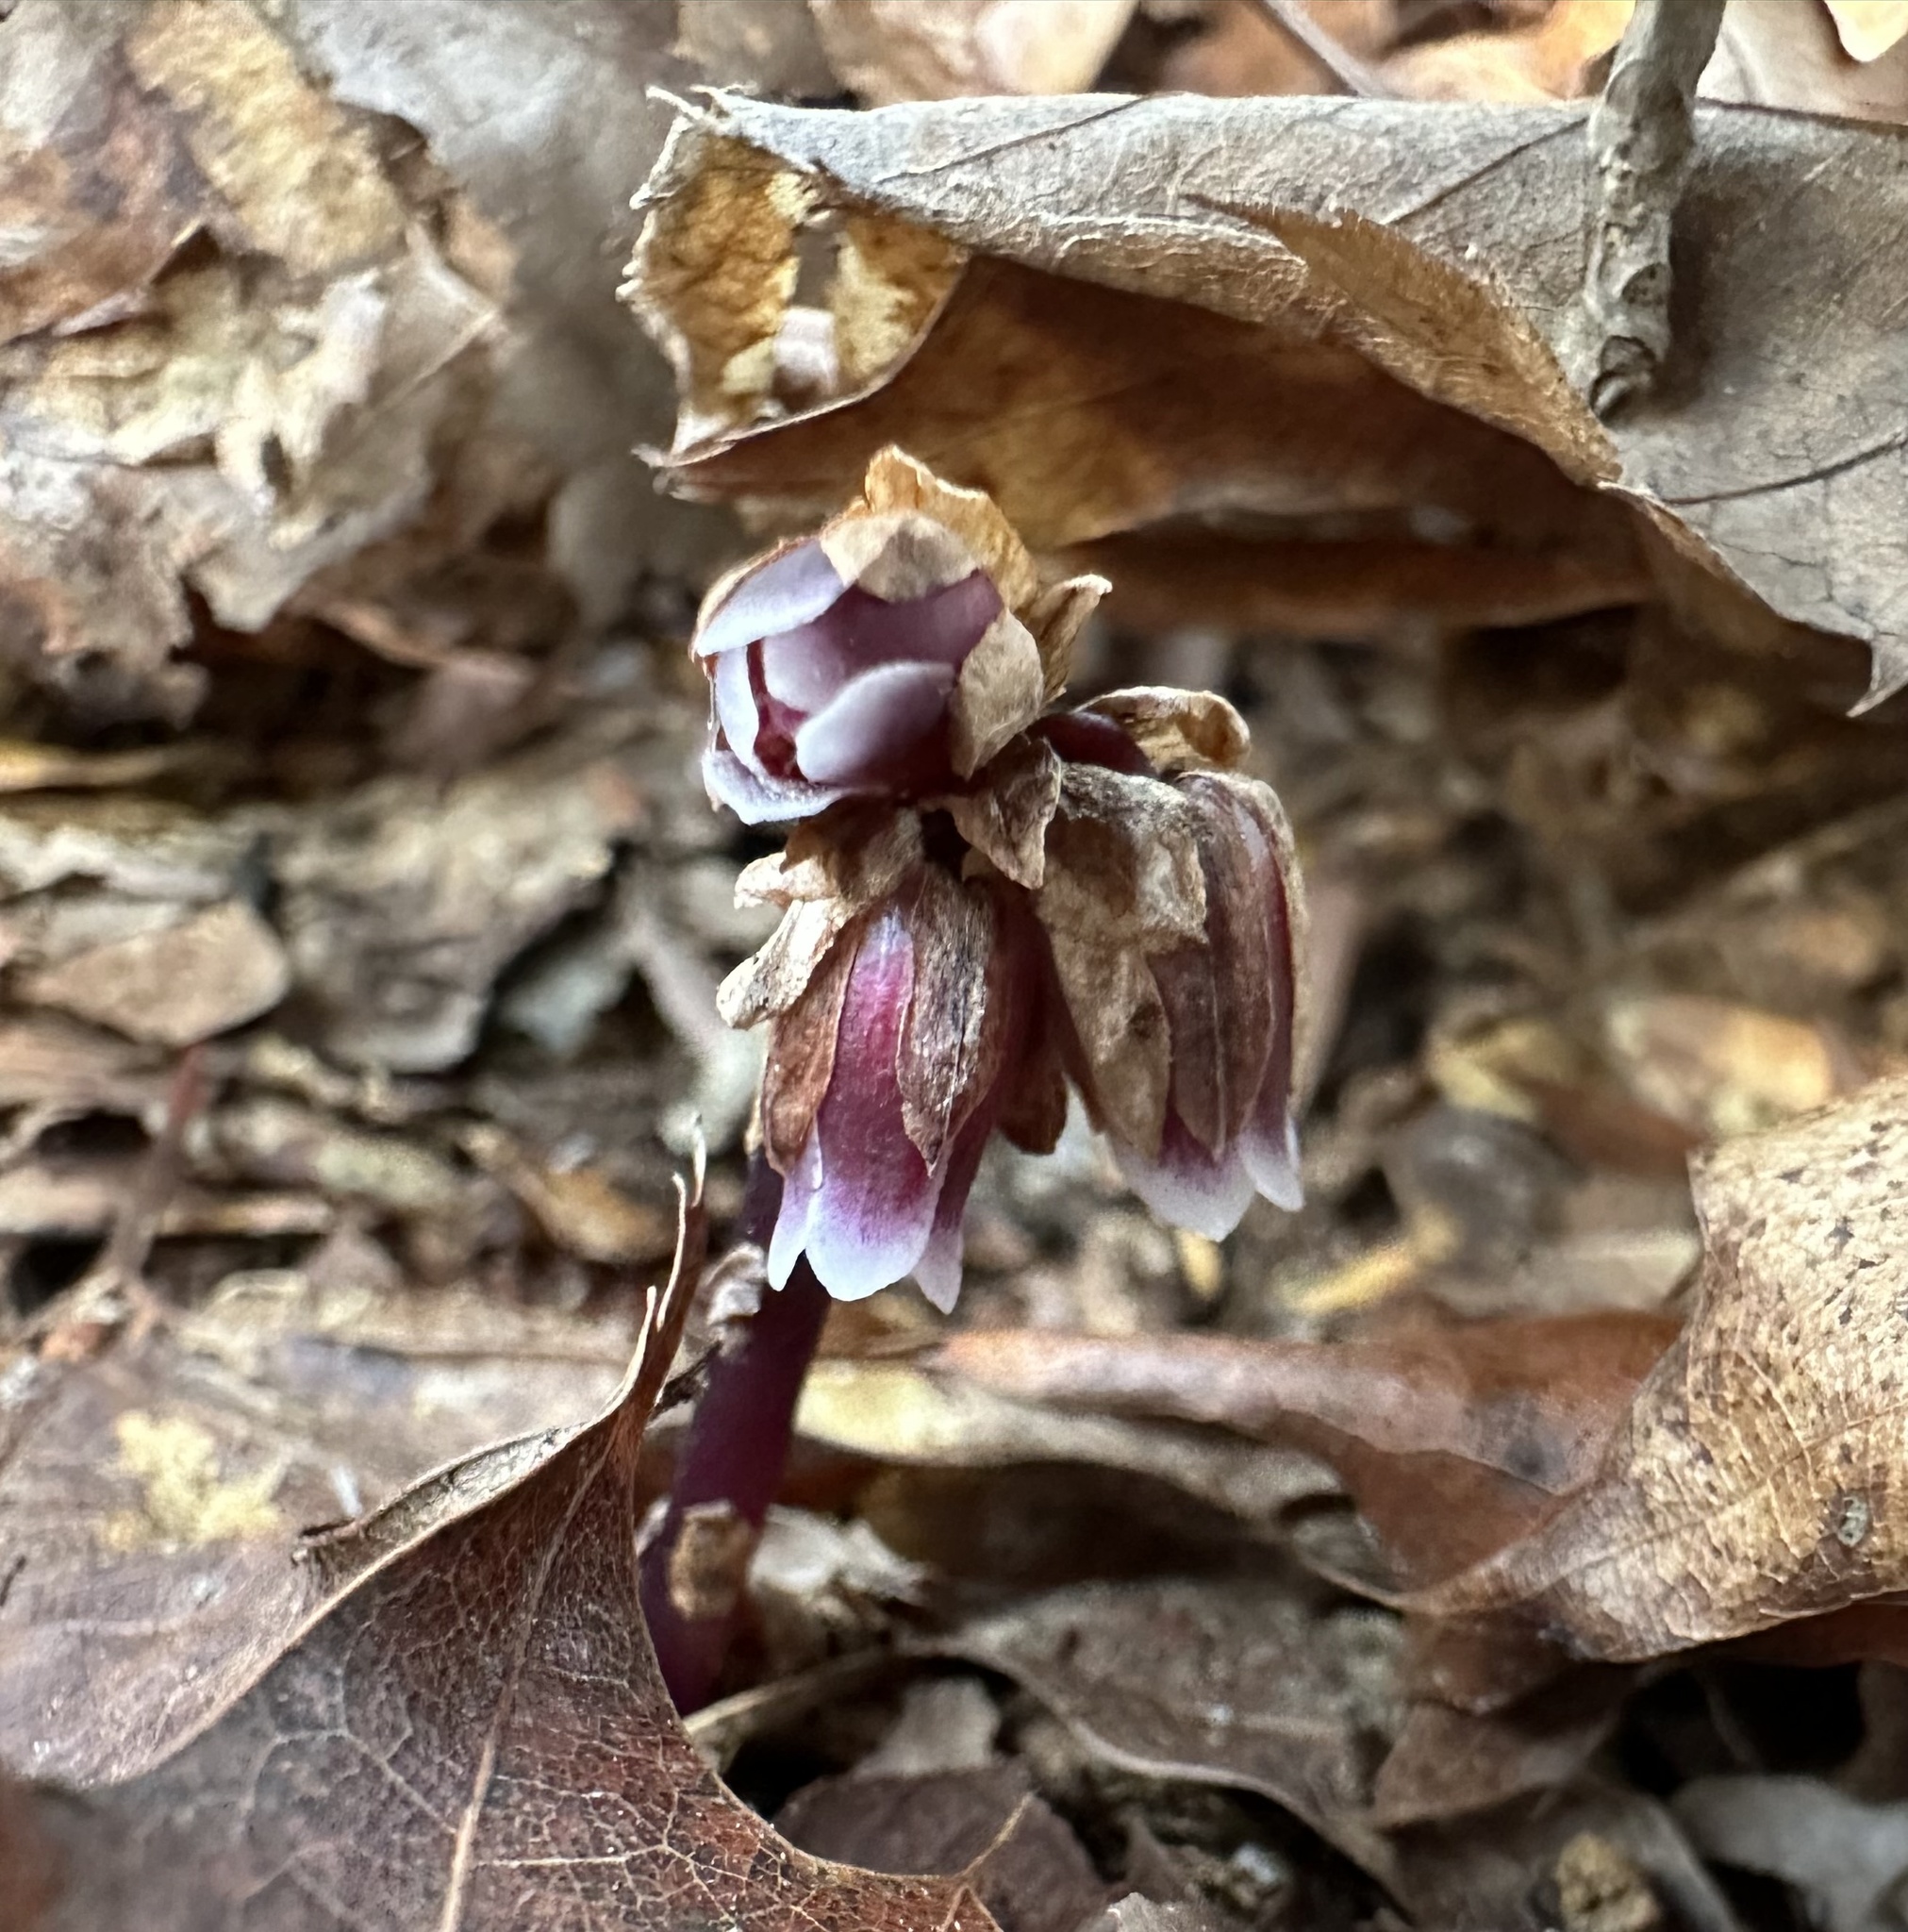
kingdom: Plantae
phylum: Tracheophyta
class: Magnoliopsida
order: Ericales
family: Ericaceae
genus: Monotropsis
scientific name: Monotropsis odorata
